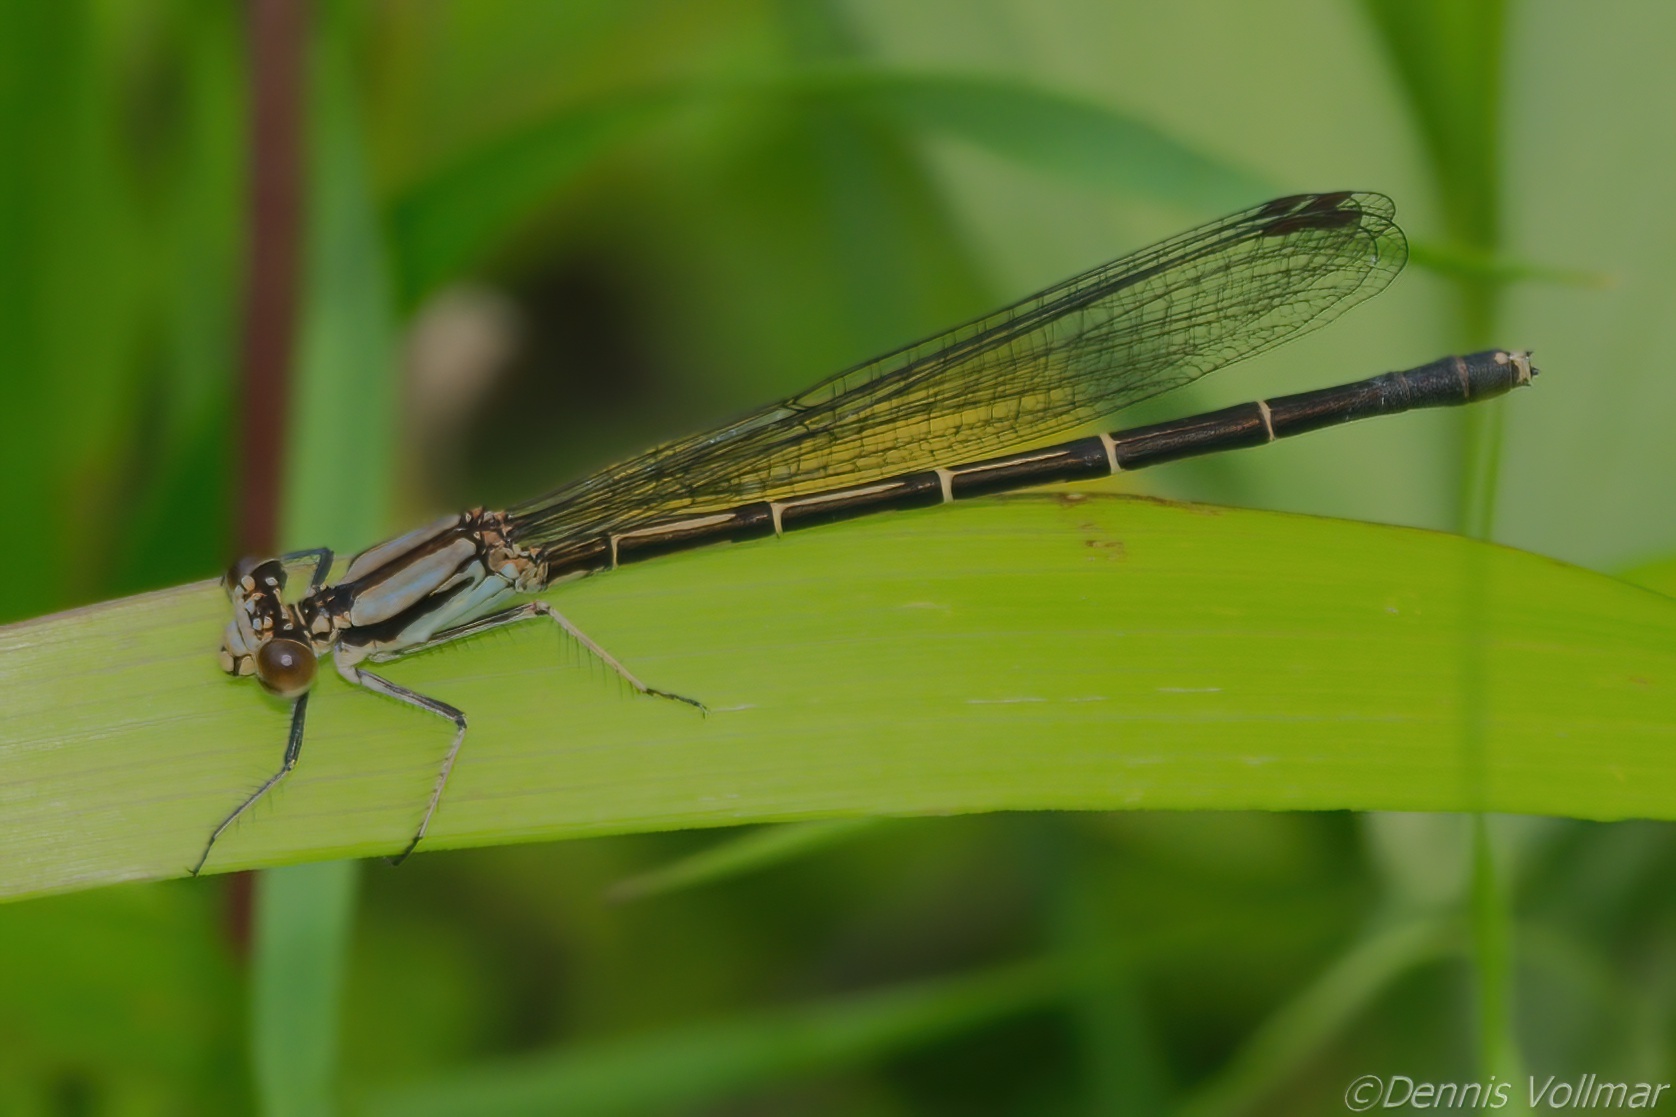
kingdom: Animalia
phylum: Arthropoda
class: Insecta
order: Odonata
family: Coenagrionidae
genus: Argia
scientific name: Argia tibialis
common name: Blue-tipped dancer
